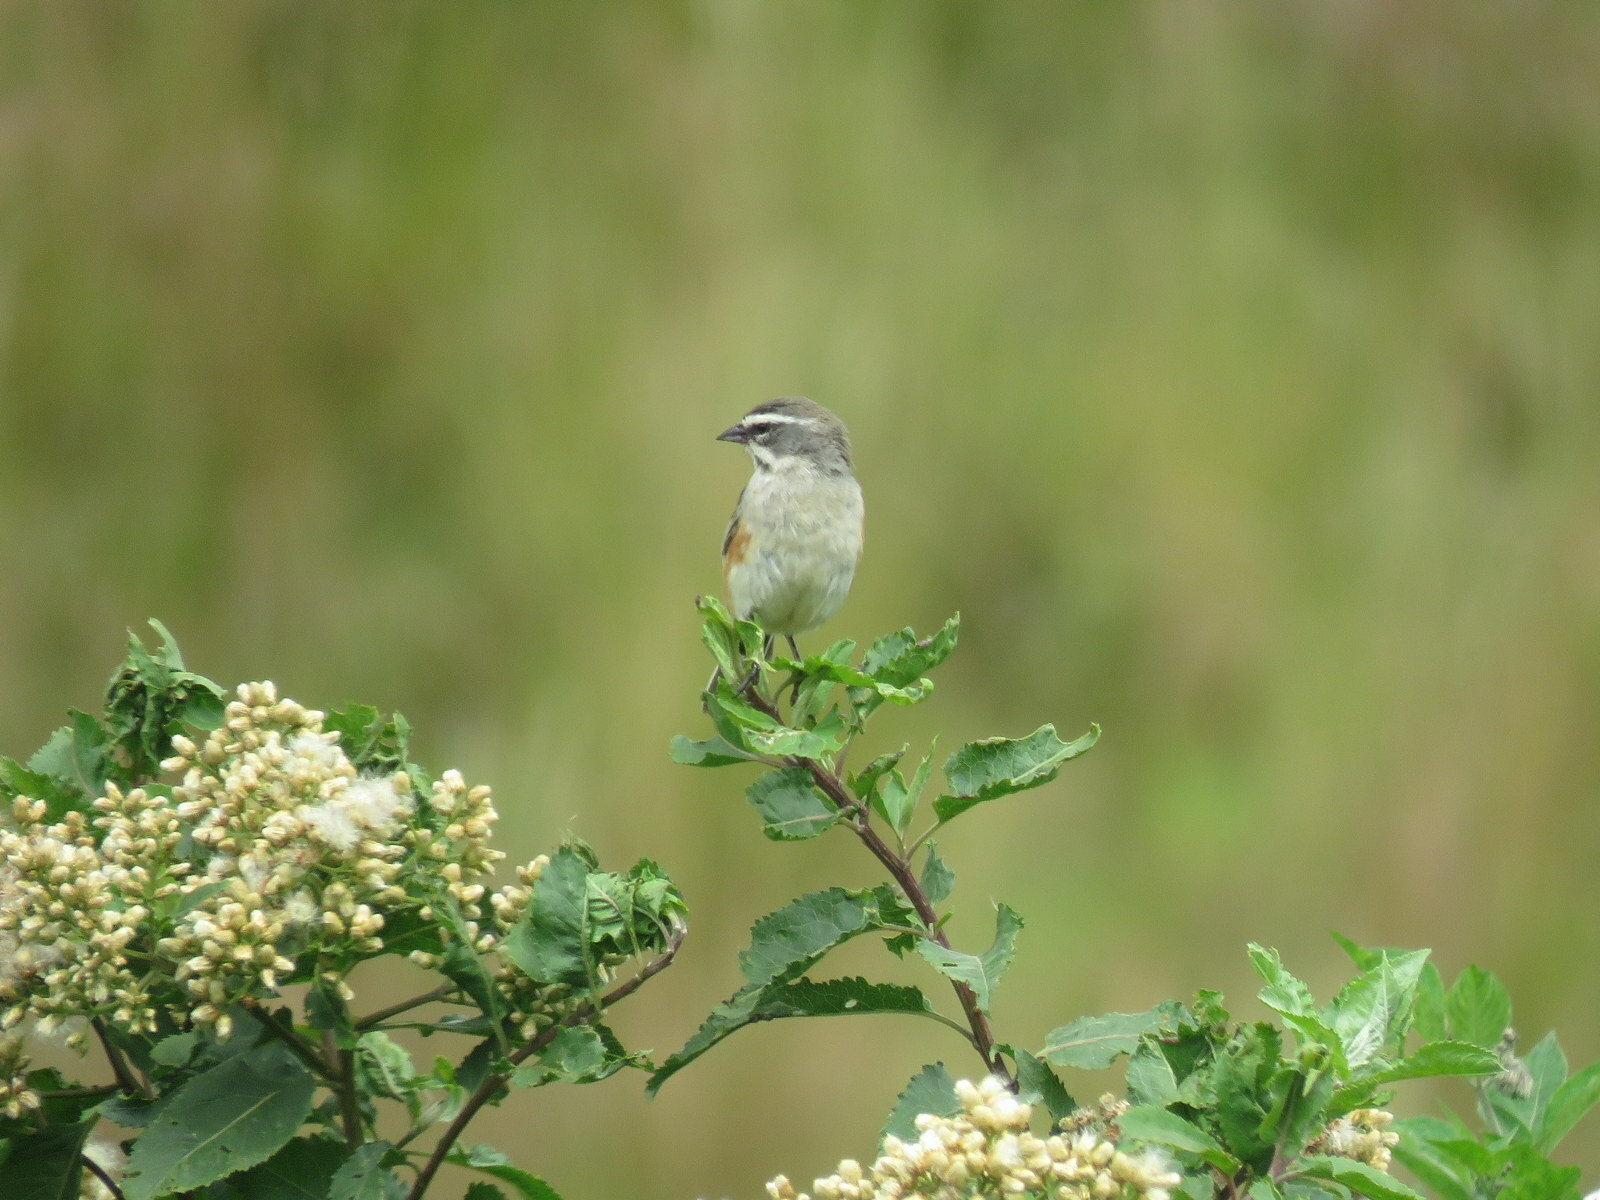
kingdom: Animalia
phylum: Chordata
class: Aves
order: Passeriformes
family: Thraupidae
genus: Poospizopsis
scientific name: Poospizopsis hypocondria
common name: Rufous-sided warbling-finch
